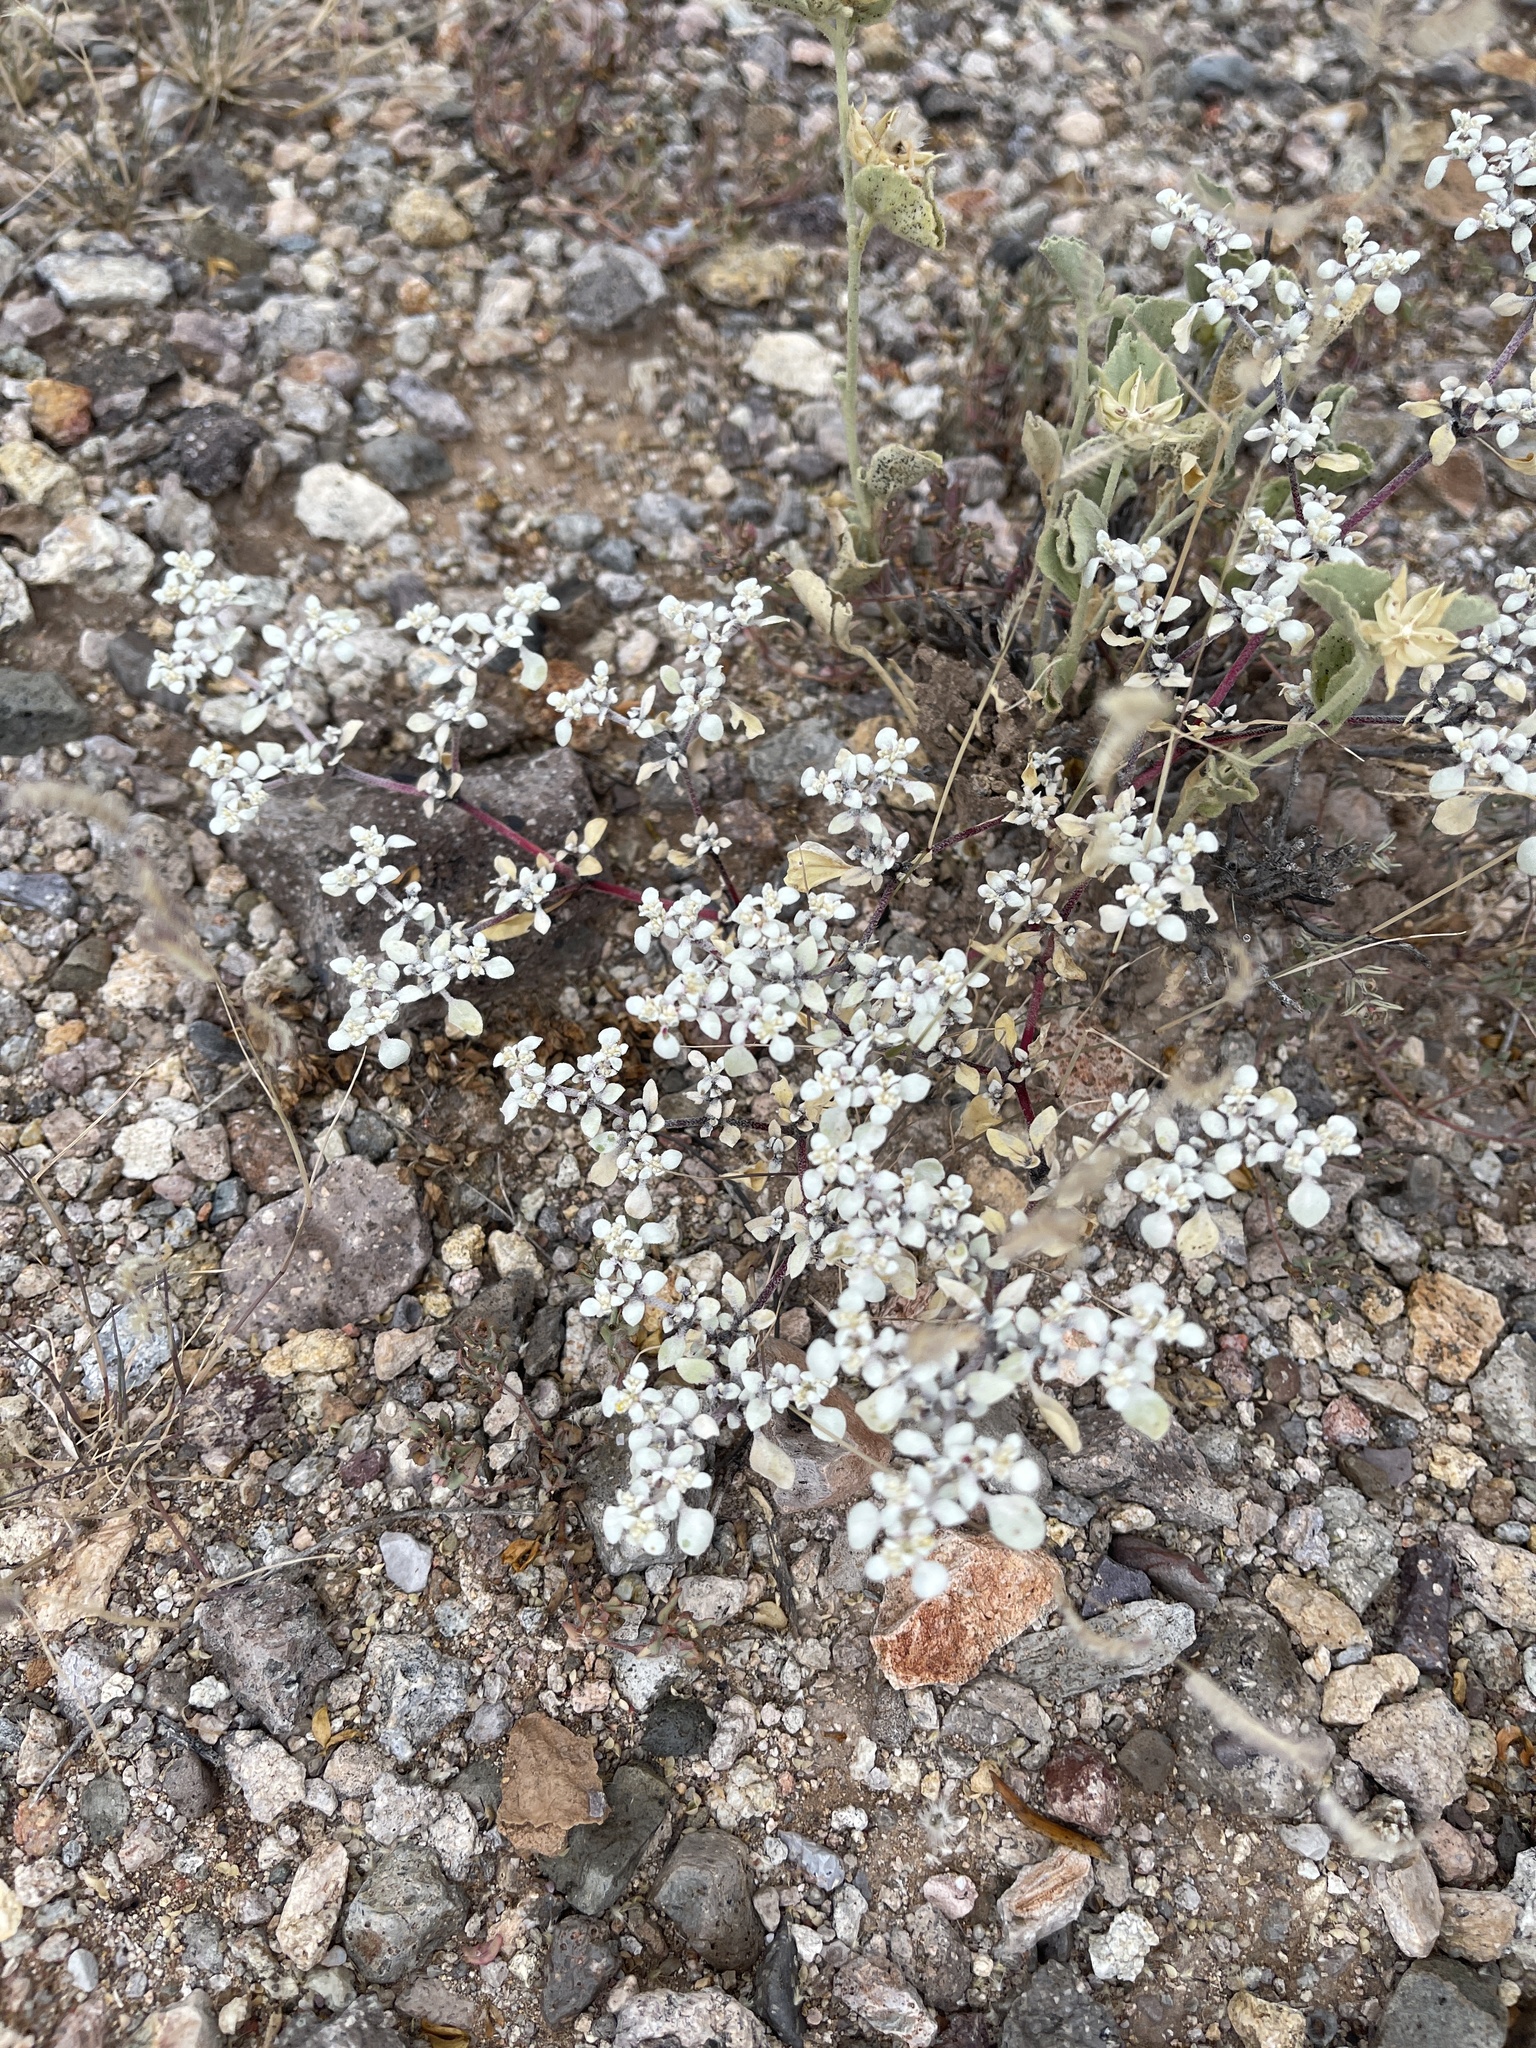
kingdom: Plantae
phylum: Tracheophyta
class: Magnoliopsida
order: Caryophyllales
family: Amaranthaceae
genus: Tidestromia
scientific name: Tidestromia lanuginosa
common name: Woolly tidestromia
